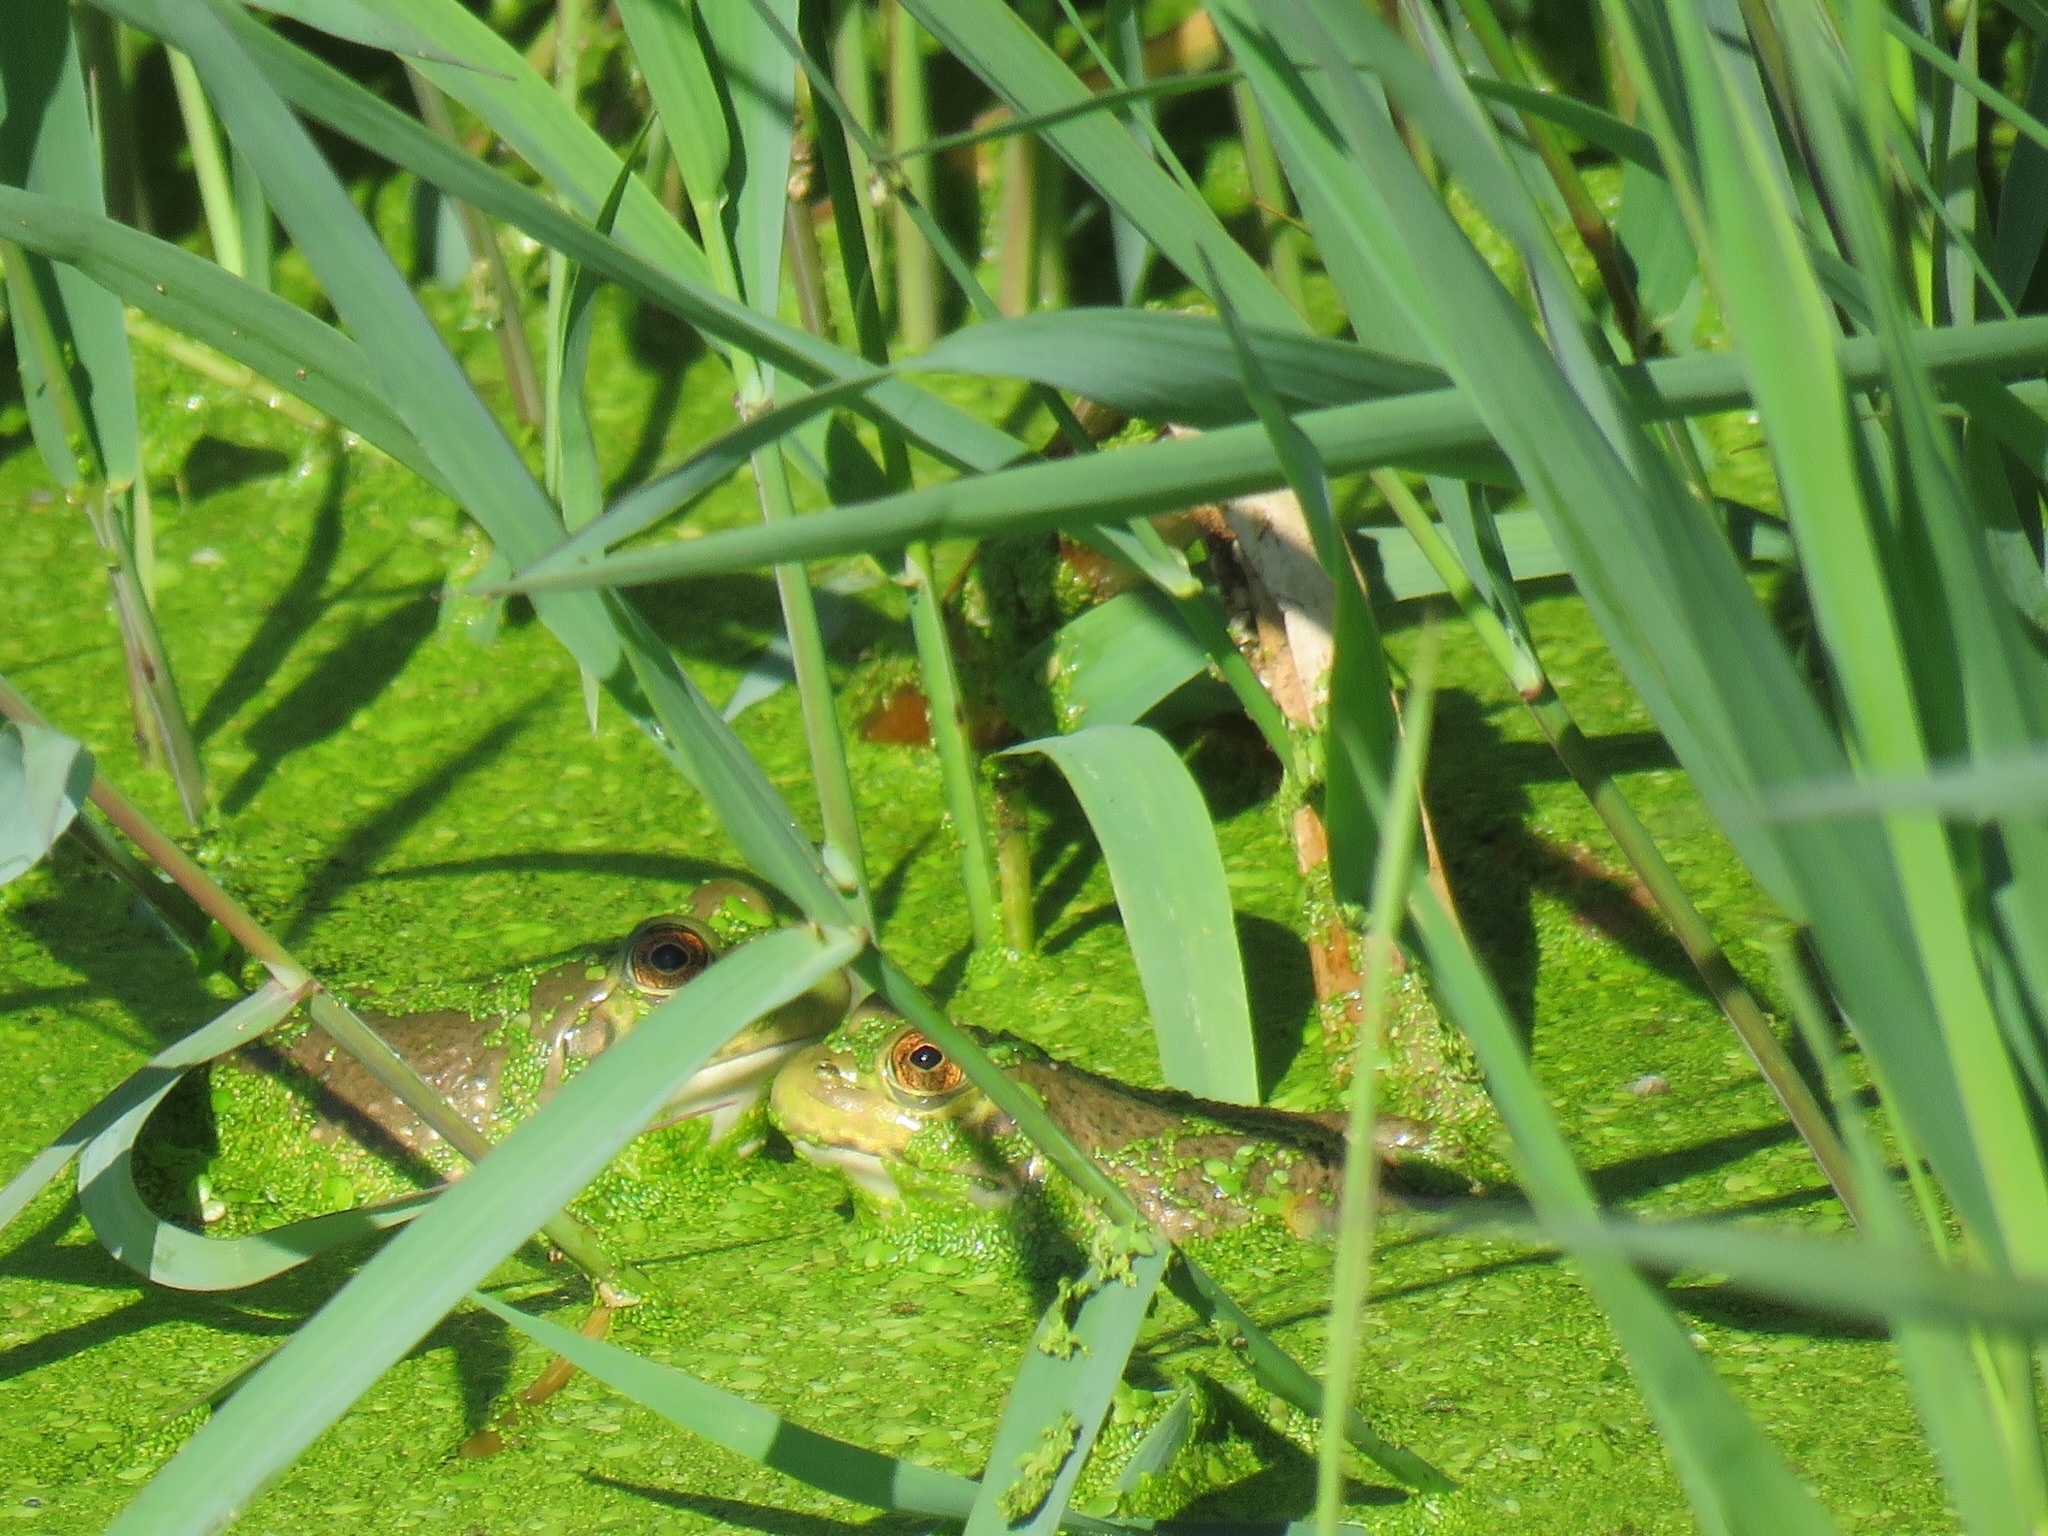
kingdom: Animalia
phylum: Chordata
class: Amphibia
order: Anura
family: Ranidae
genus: Lithobates
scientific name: Lithobates catesbeianus
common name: American bullfrog
